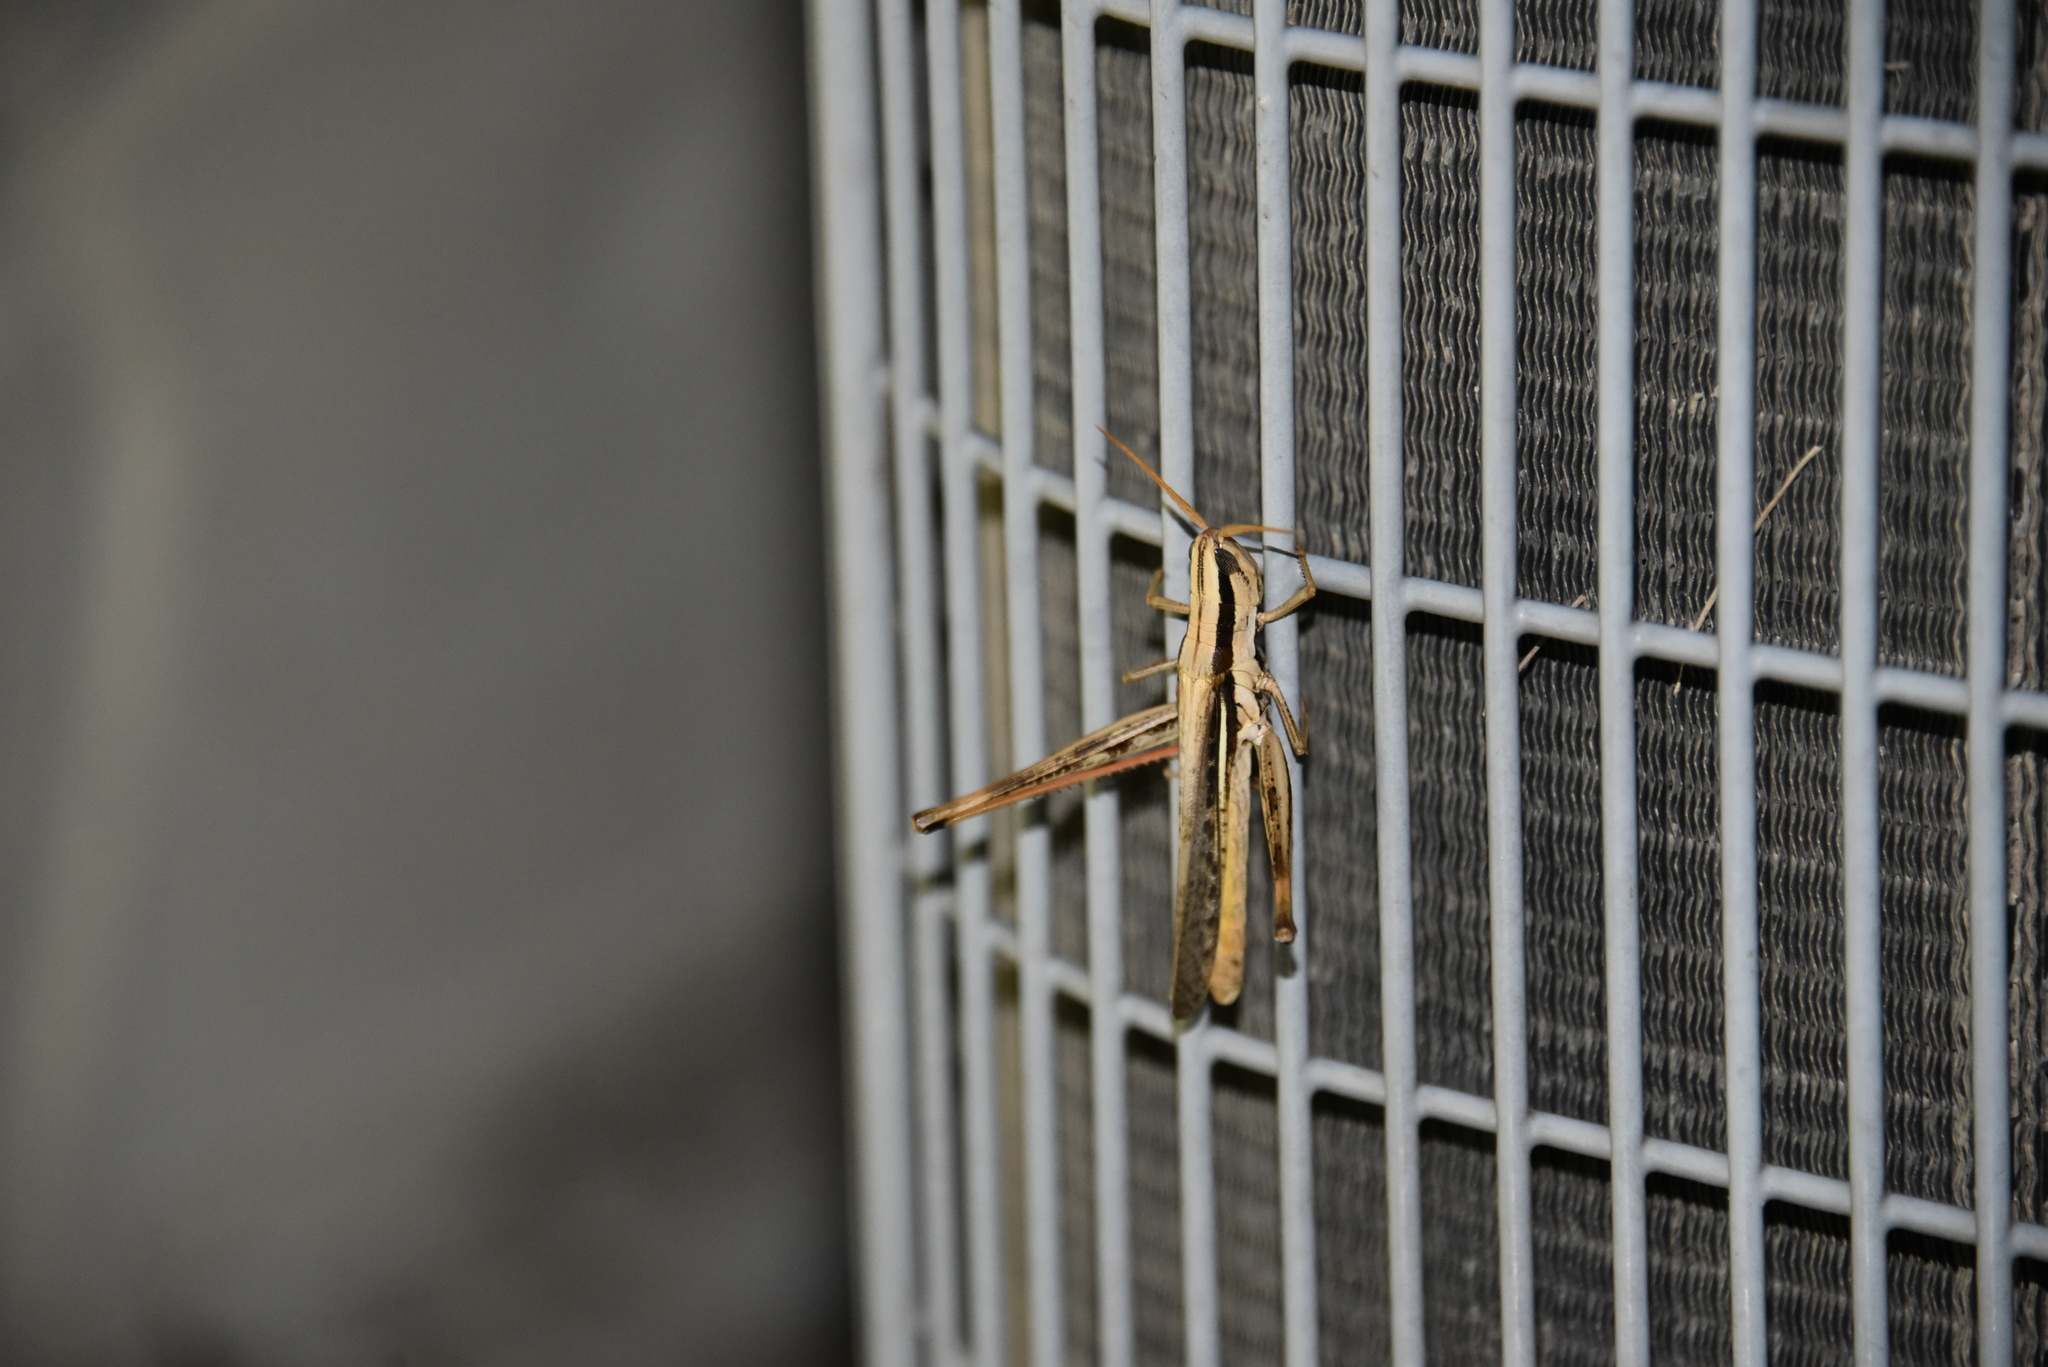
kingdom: Animalia
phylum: Arthropoda
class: Insecta
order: Orthoptera
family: Acrididae
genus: Mermiria
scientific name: Mermiria bivittata
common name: Two-striped mermiria grasshopper
